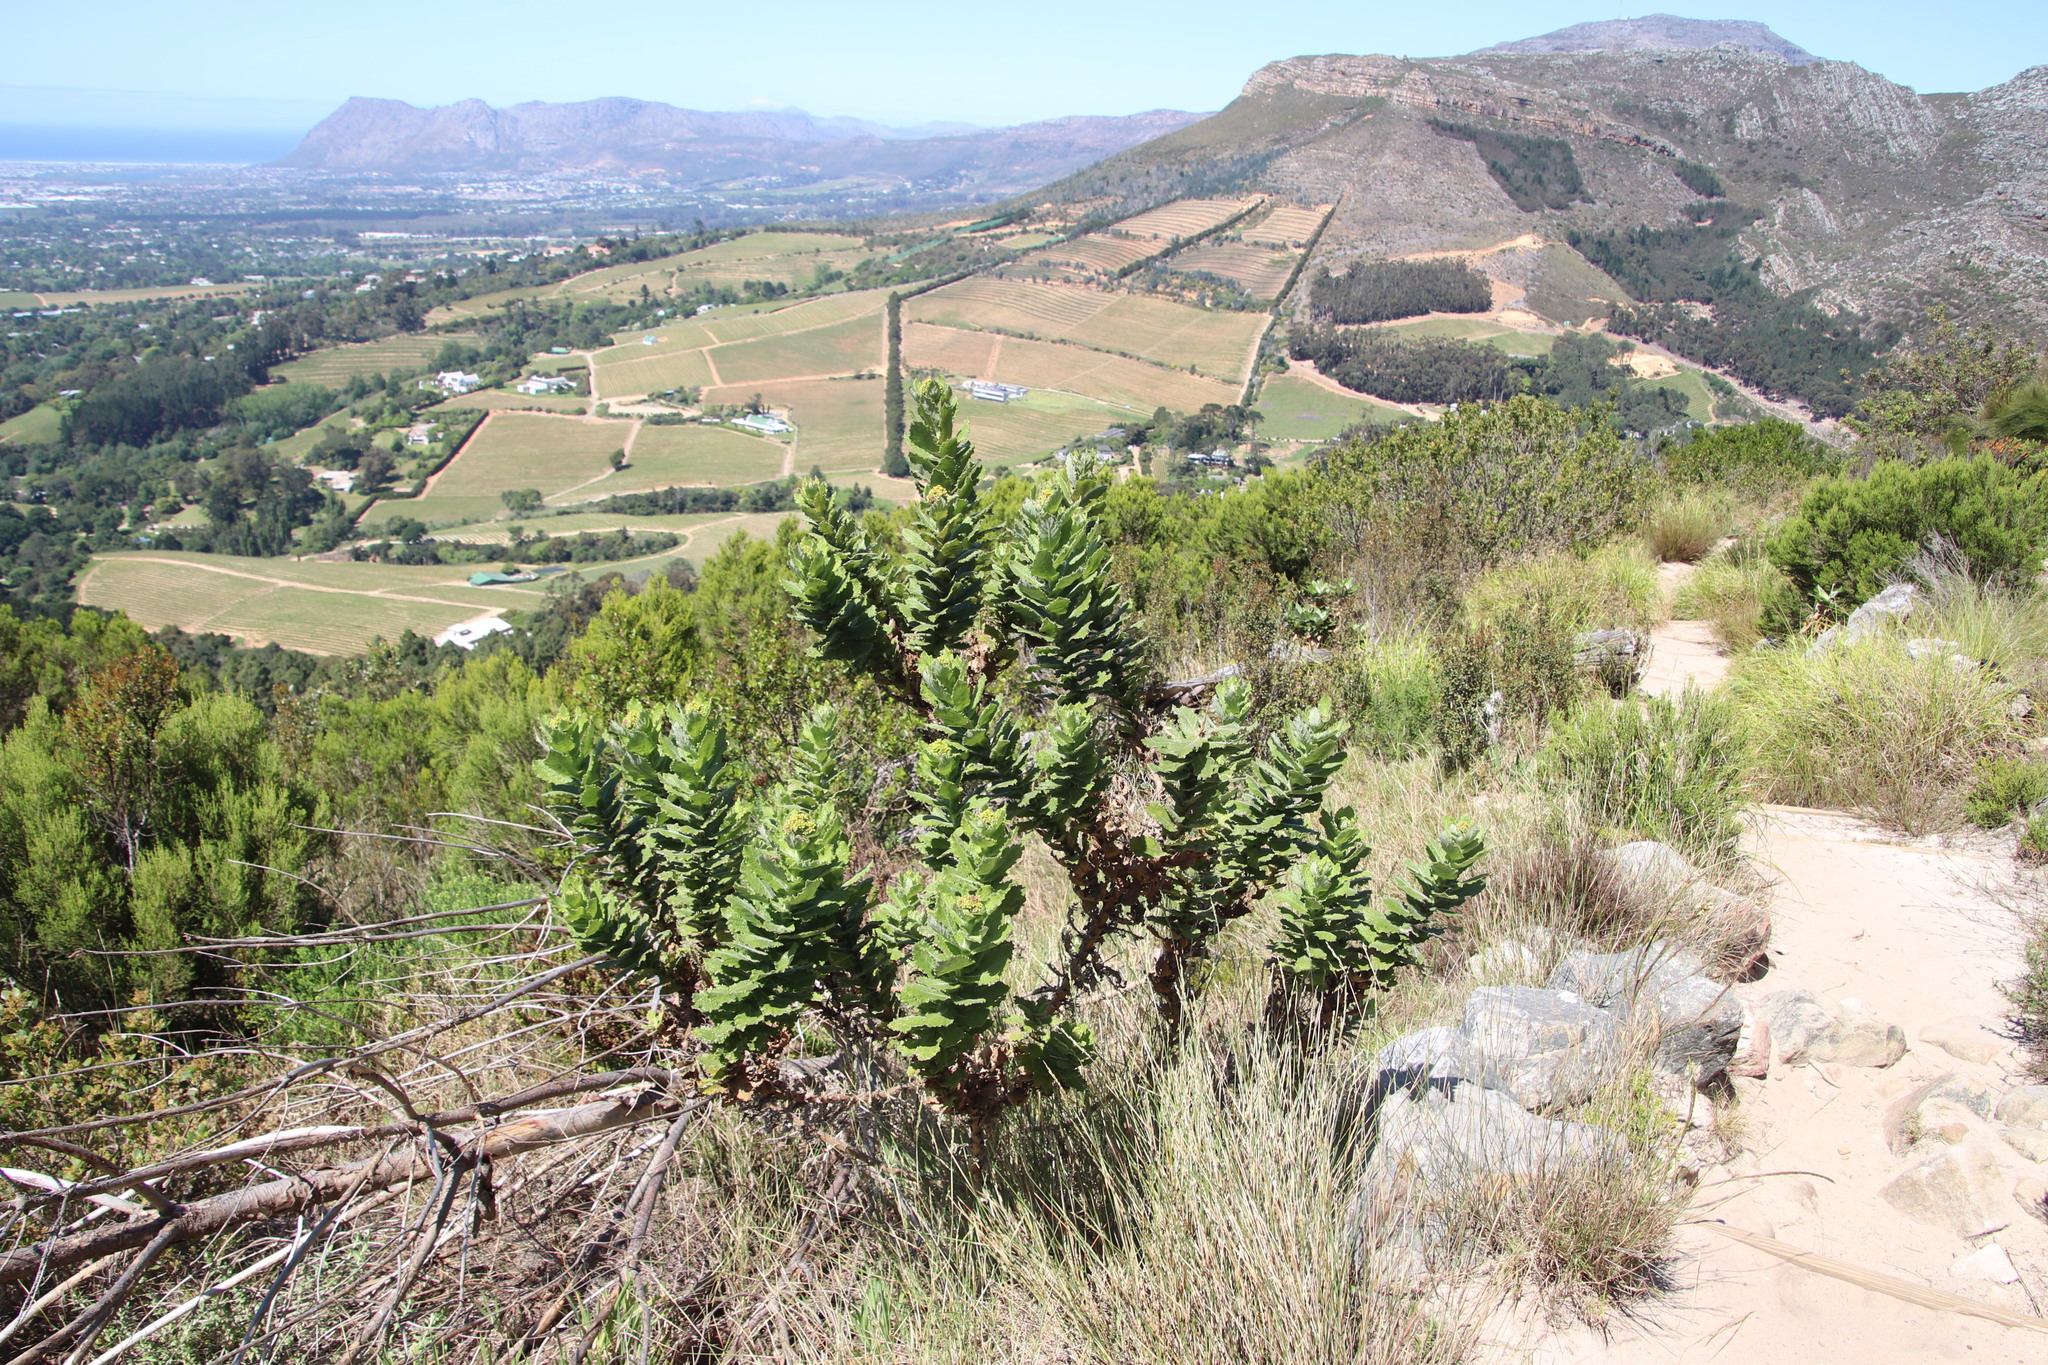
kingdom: Plantae
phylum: Tracheophyta
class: Magnoliopsida
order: Asterales
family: Asteraceae
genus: Senecio
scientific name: Senecio rigidus
